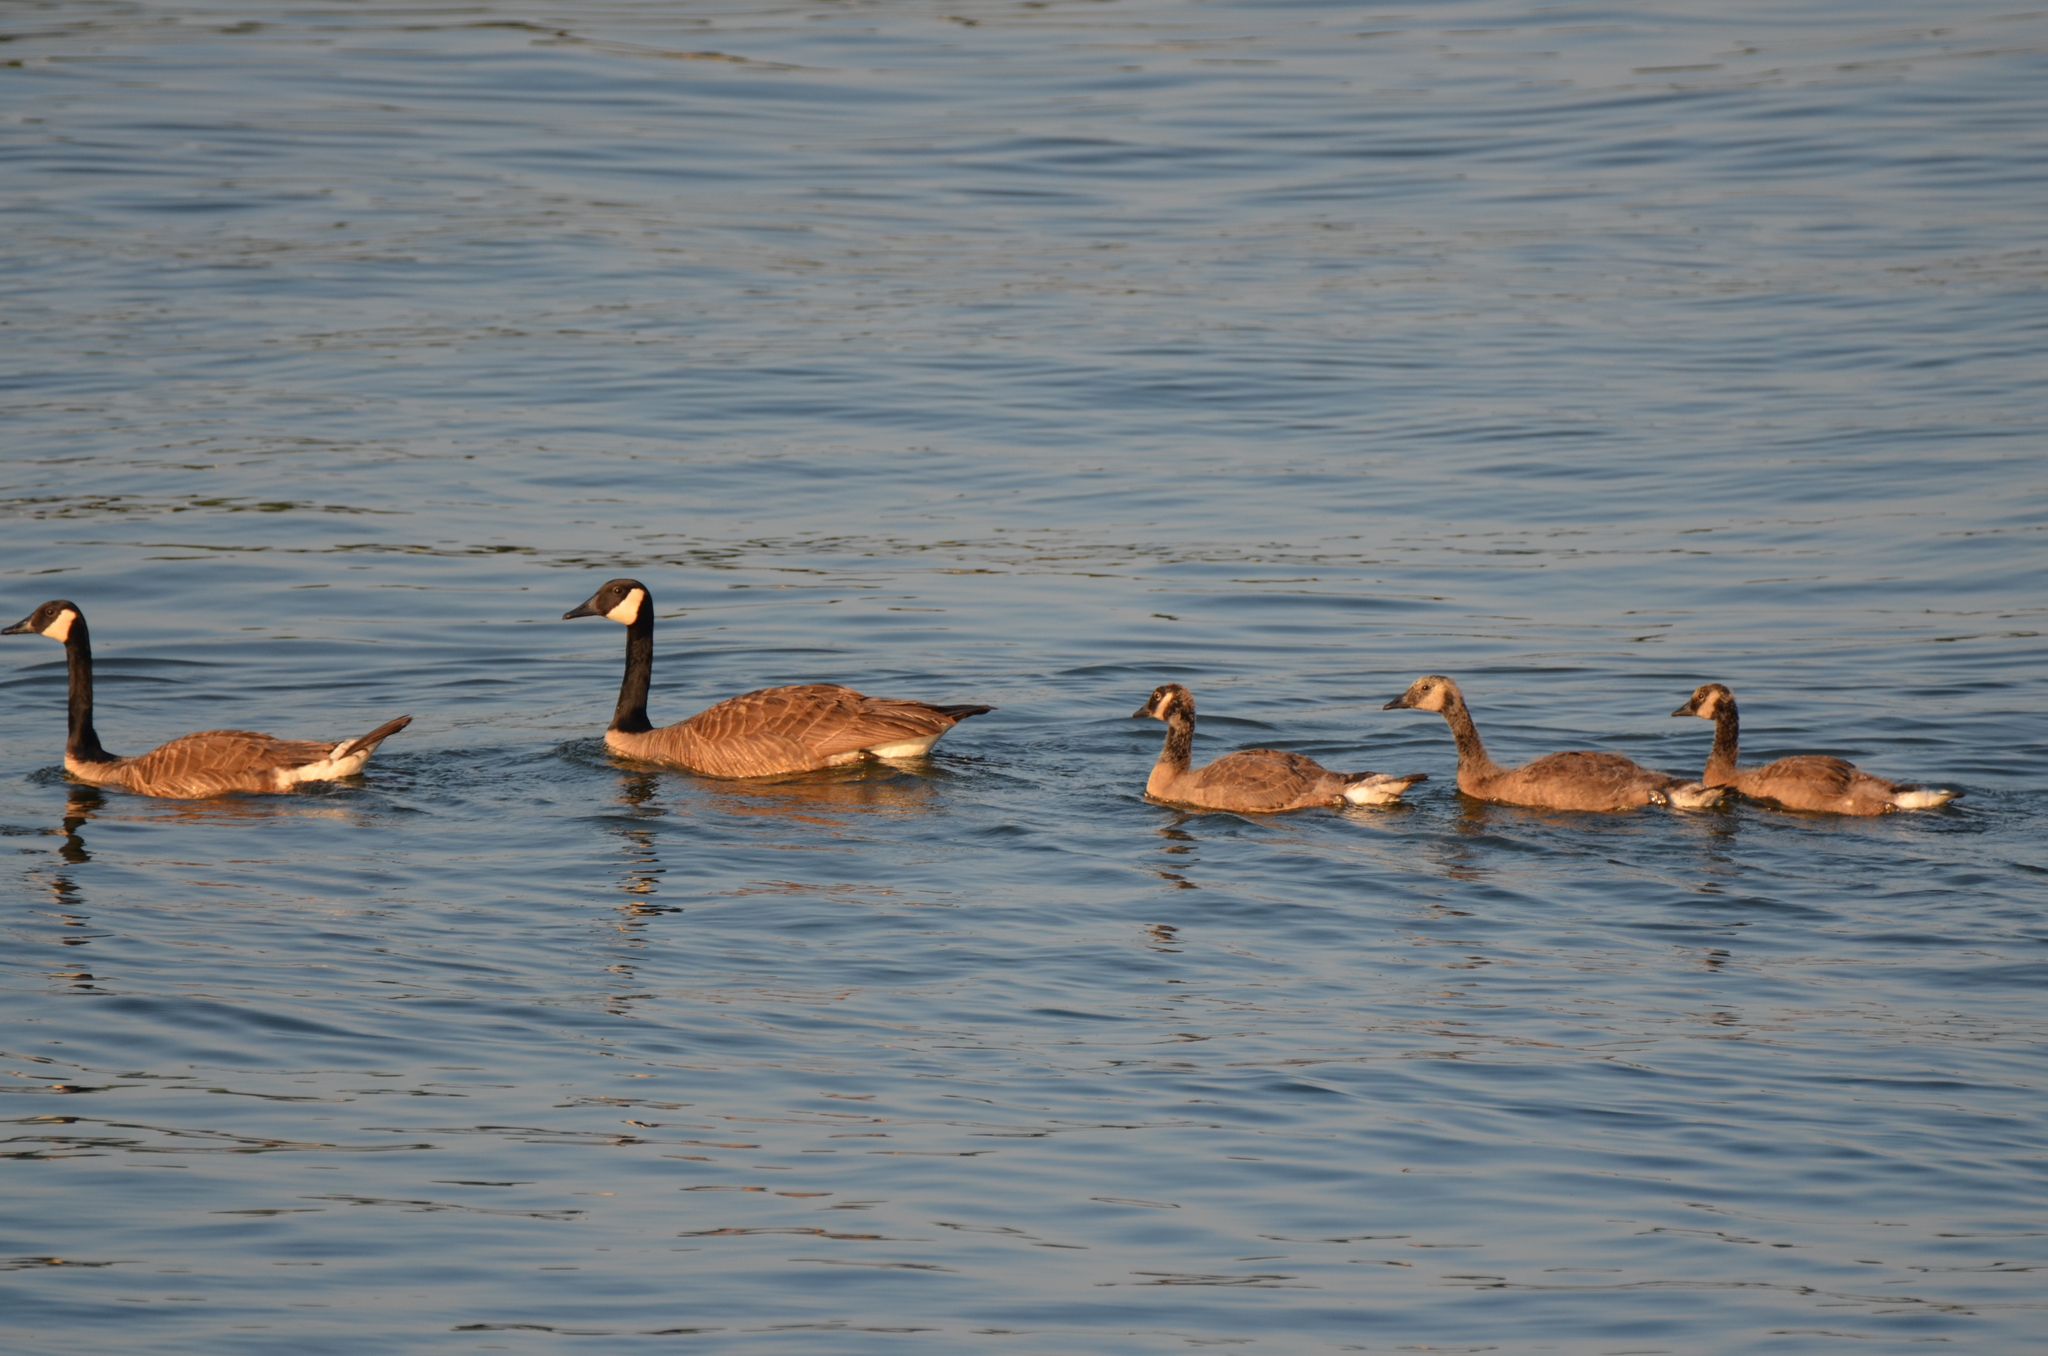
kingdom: Animalia
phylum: Chordata
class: Aves
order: Anseriformes
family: Anatidae
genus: Branta
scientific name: Branta canadensis
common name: Canada goose
